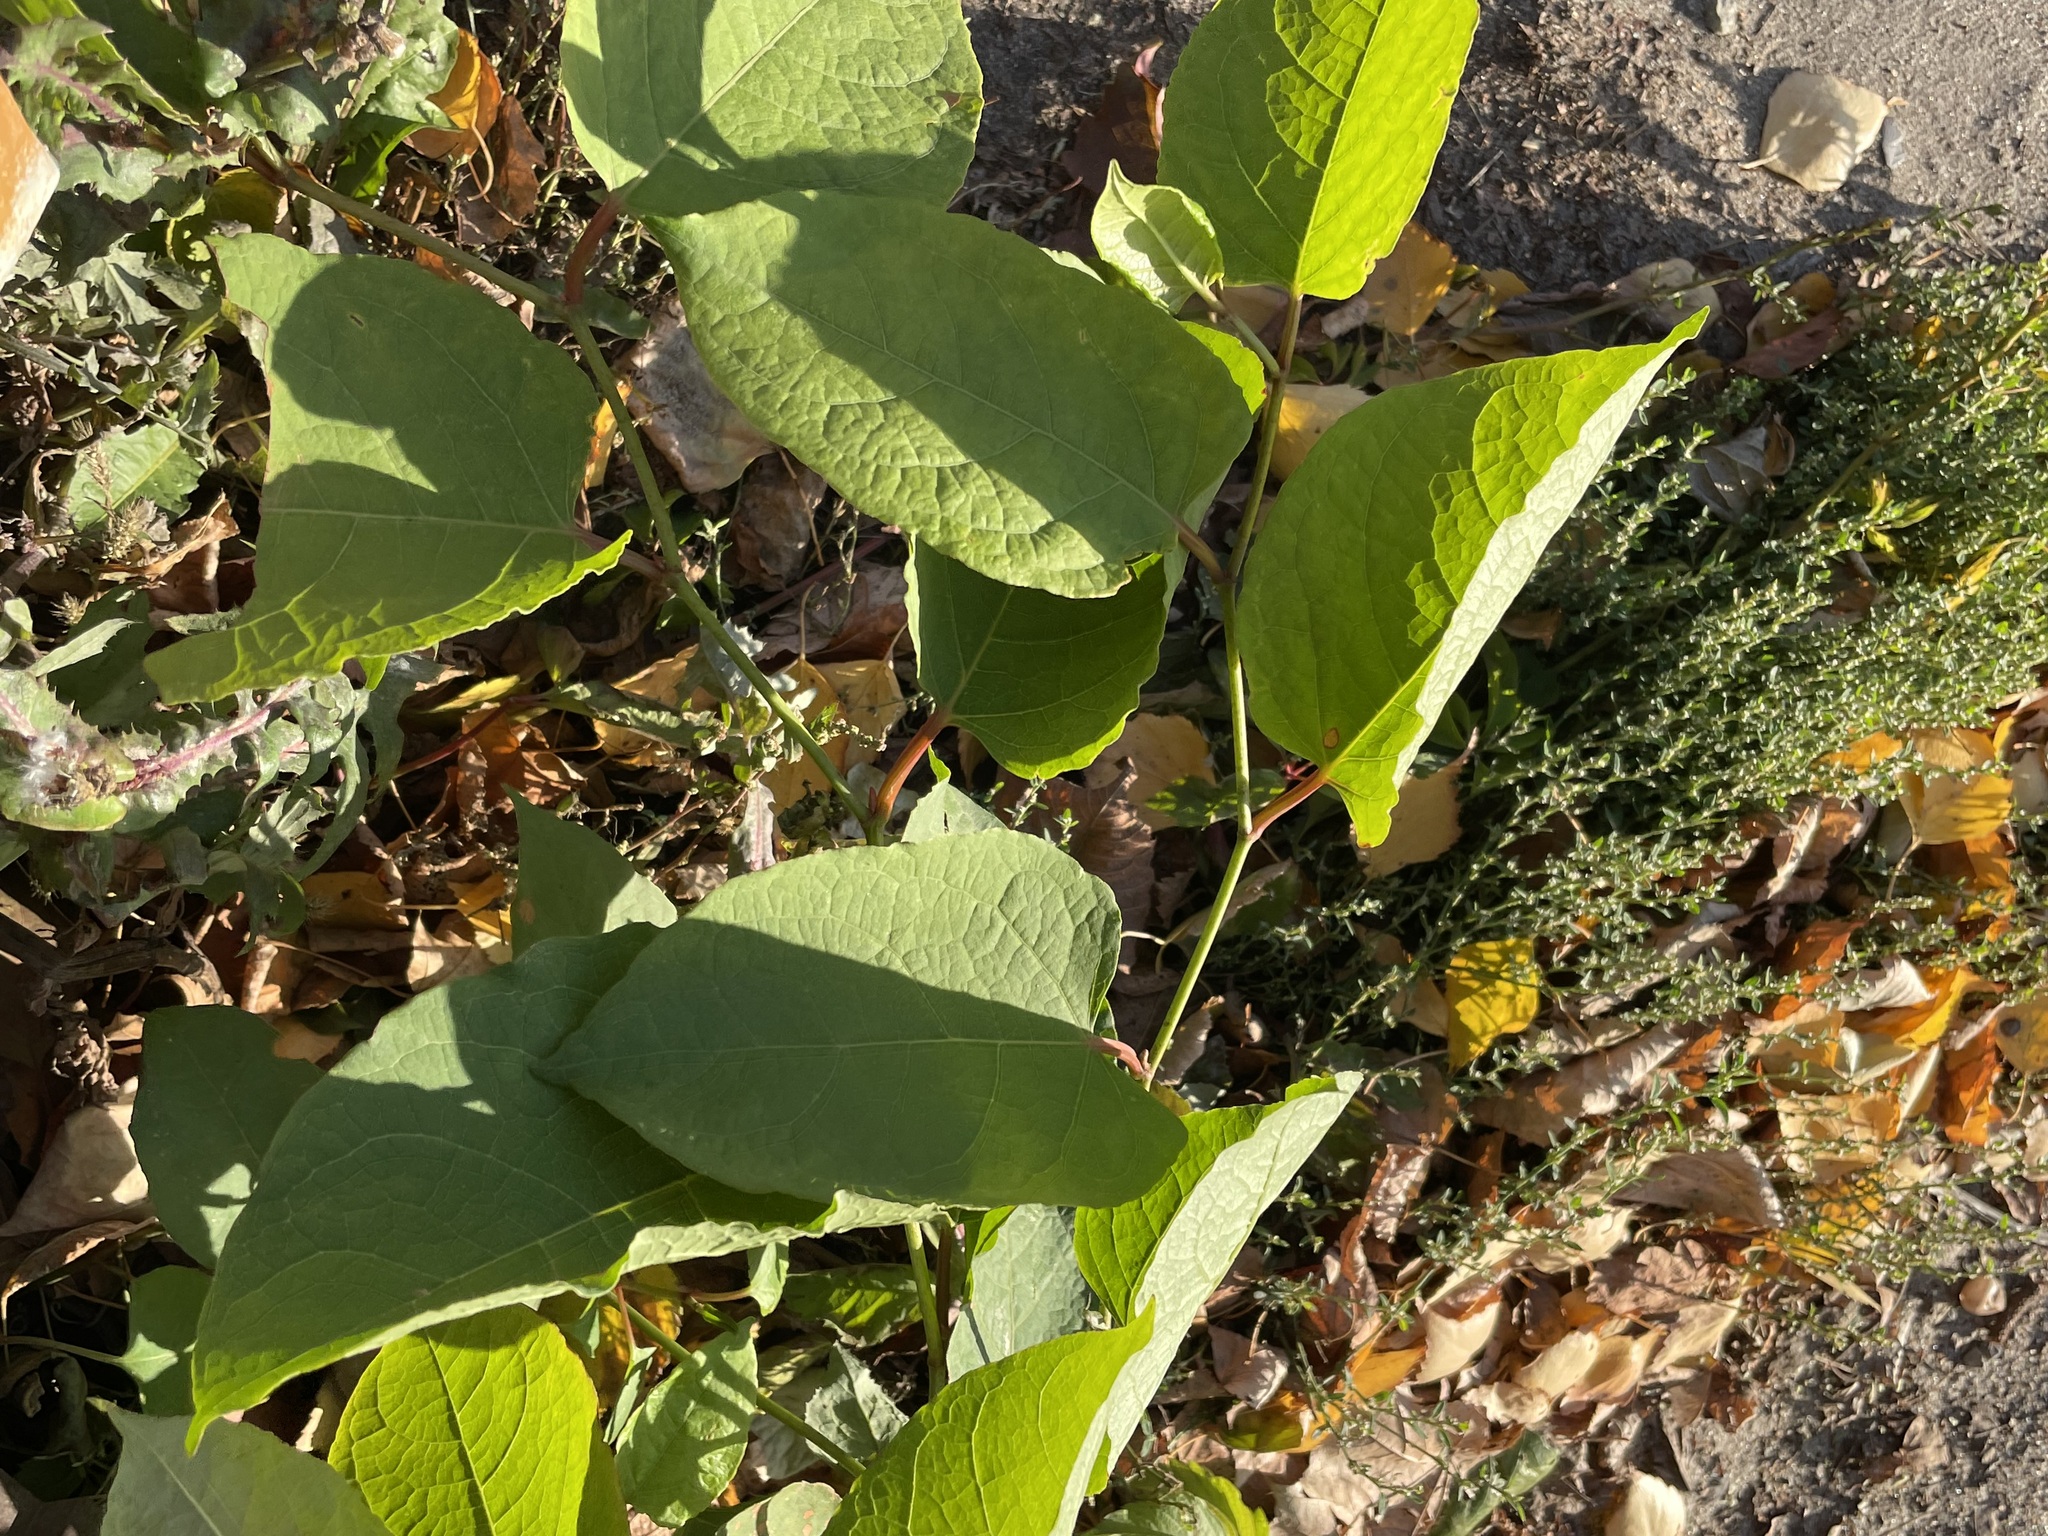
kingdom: Plantae
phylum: Tracheophyta
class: Magnoliopsida
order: Caryophyllales
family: Polygonaceae
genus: Reynoutria
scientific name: Reynoutria bohemica
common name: Bohemian knotweed
